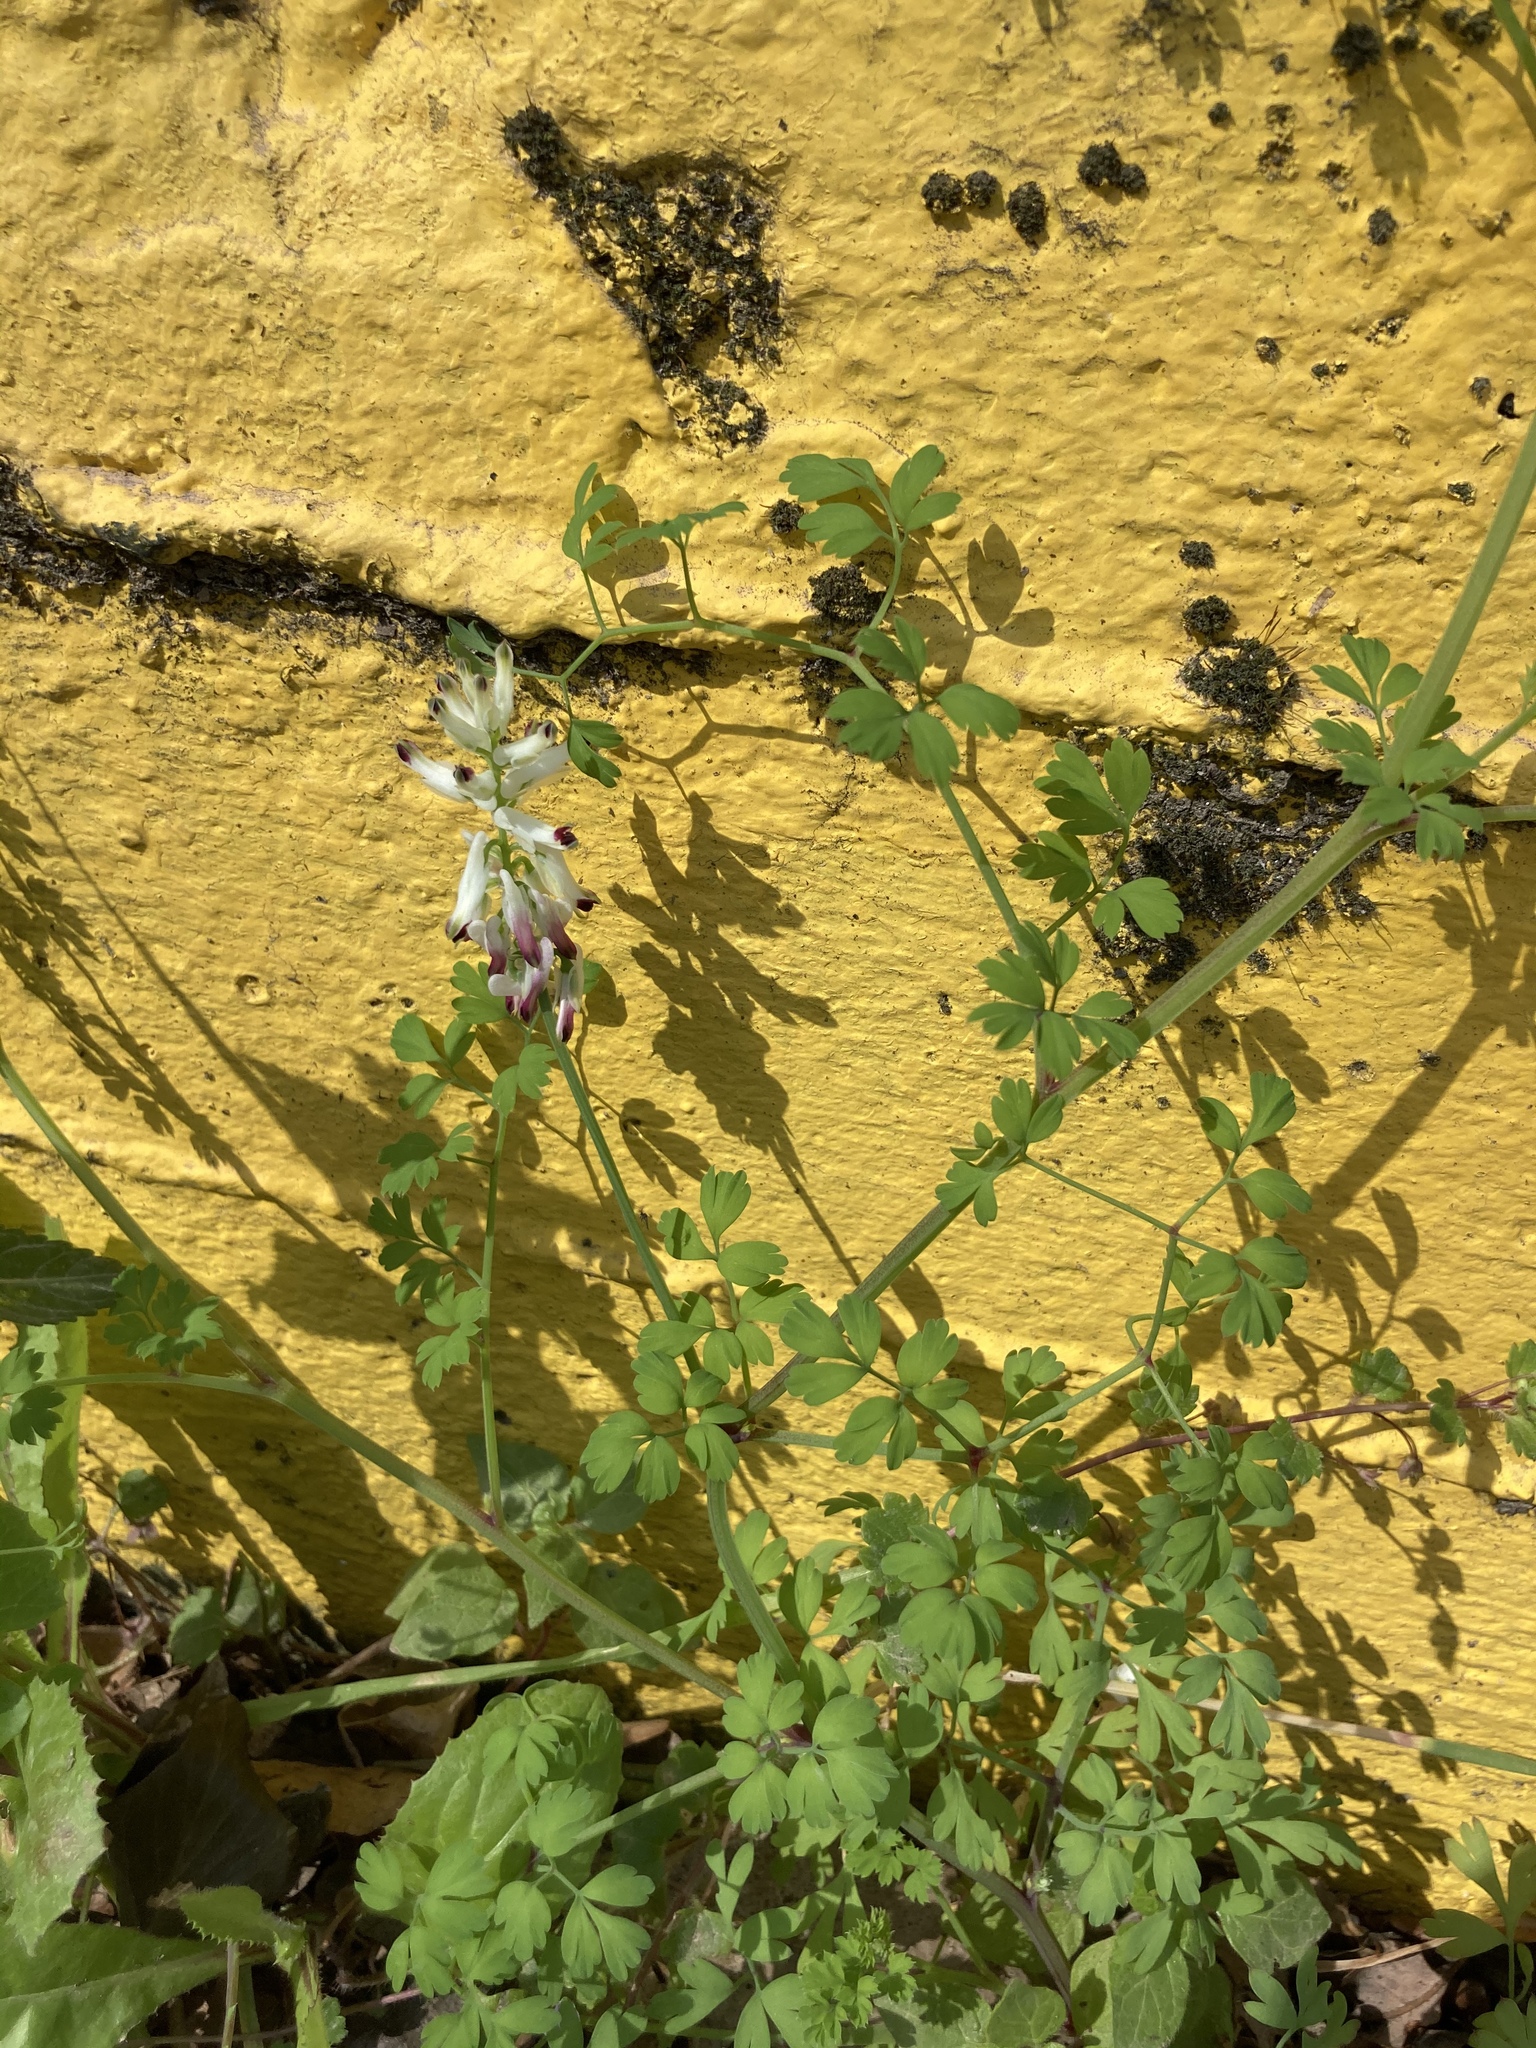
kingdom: Plantae
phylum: Tracheophyta
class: Magnoliopsida
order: Ranunculales
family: Papaveraceae
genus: Fumaria
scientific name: Fumaria capreolata
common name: White ramping-fumitory
